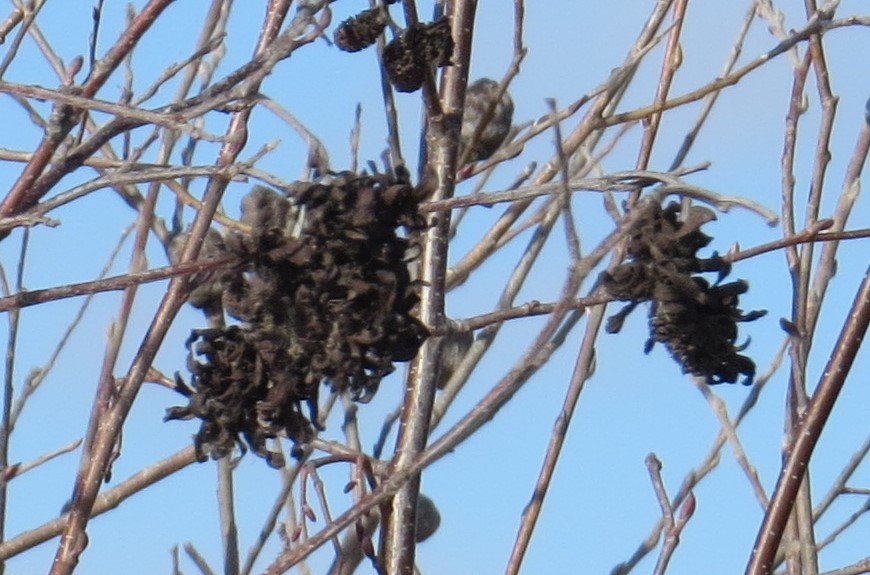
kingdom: Fungi
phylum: Ascomycota
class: Taphrinomycetes
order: Taphrinales
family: Taphrinaceae
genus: Taphrina
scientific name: Taphrina robinsoniana
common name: Eastern american alder tongue gall fungus
